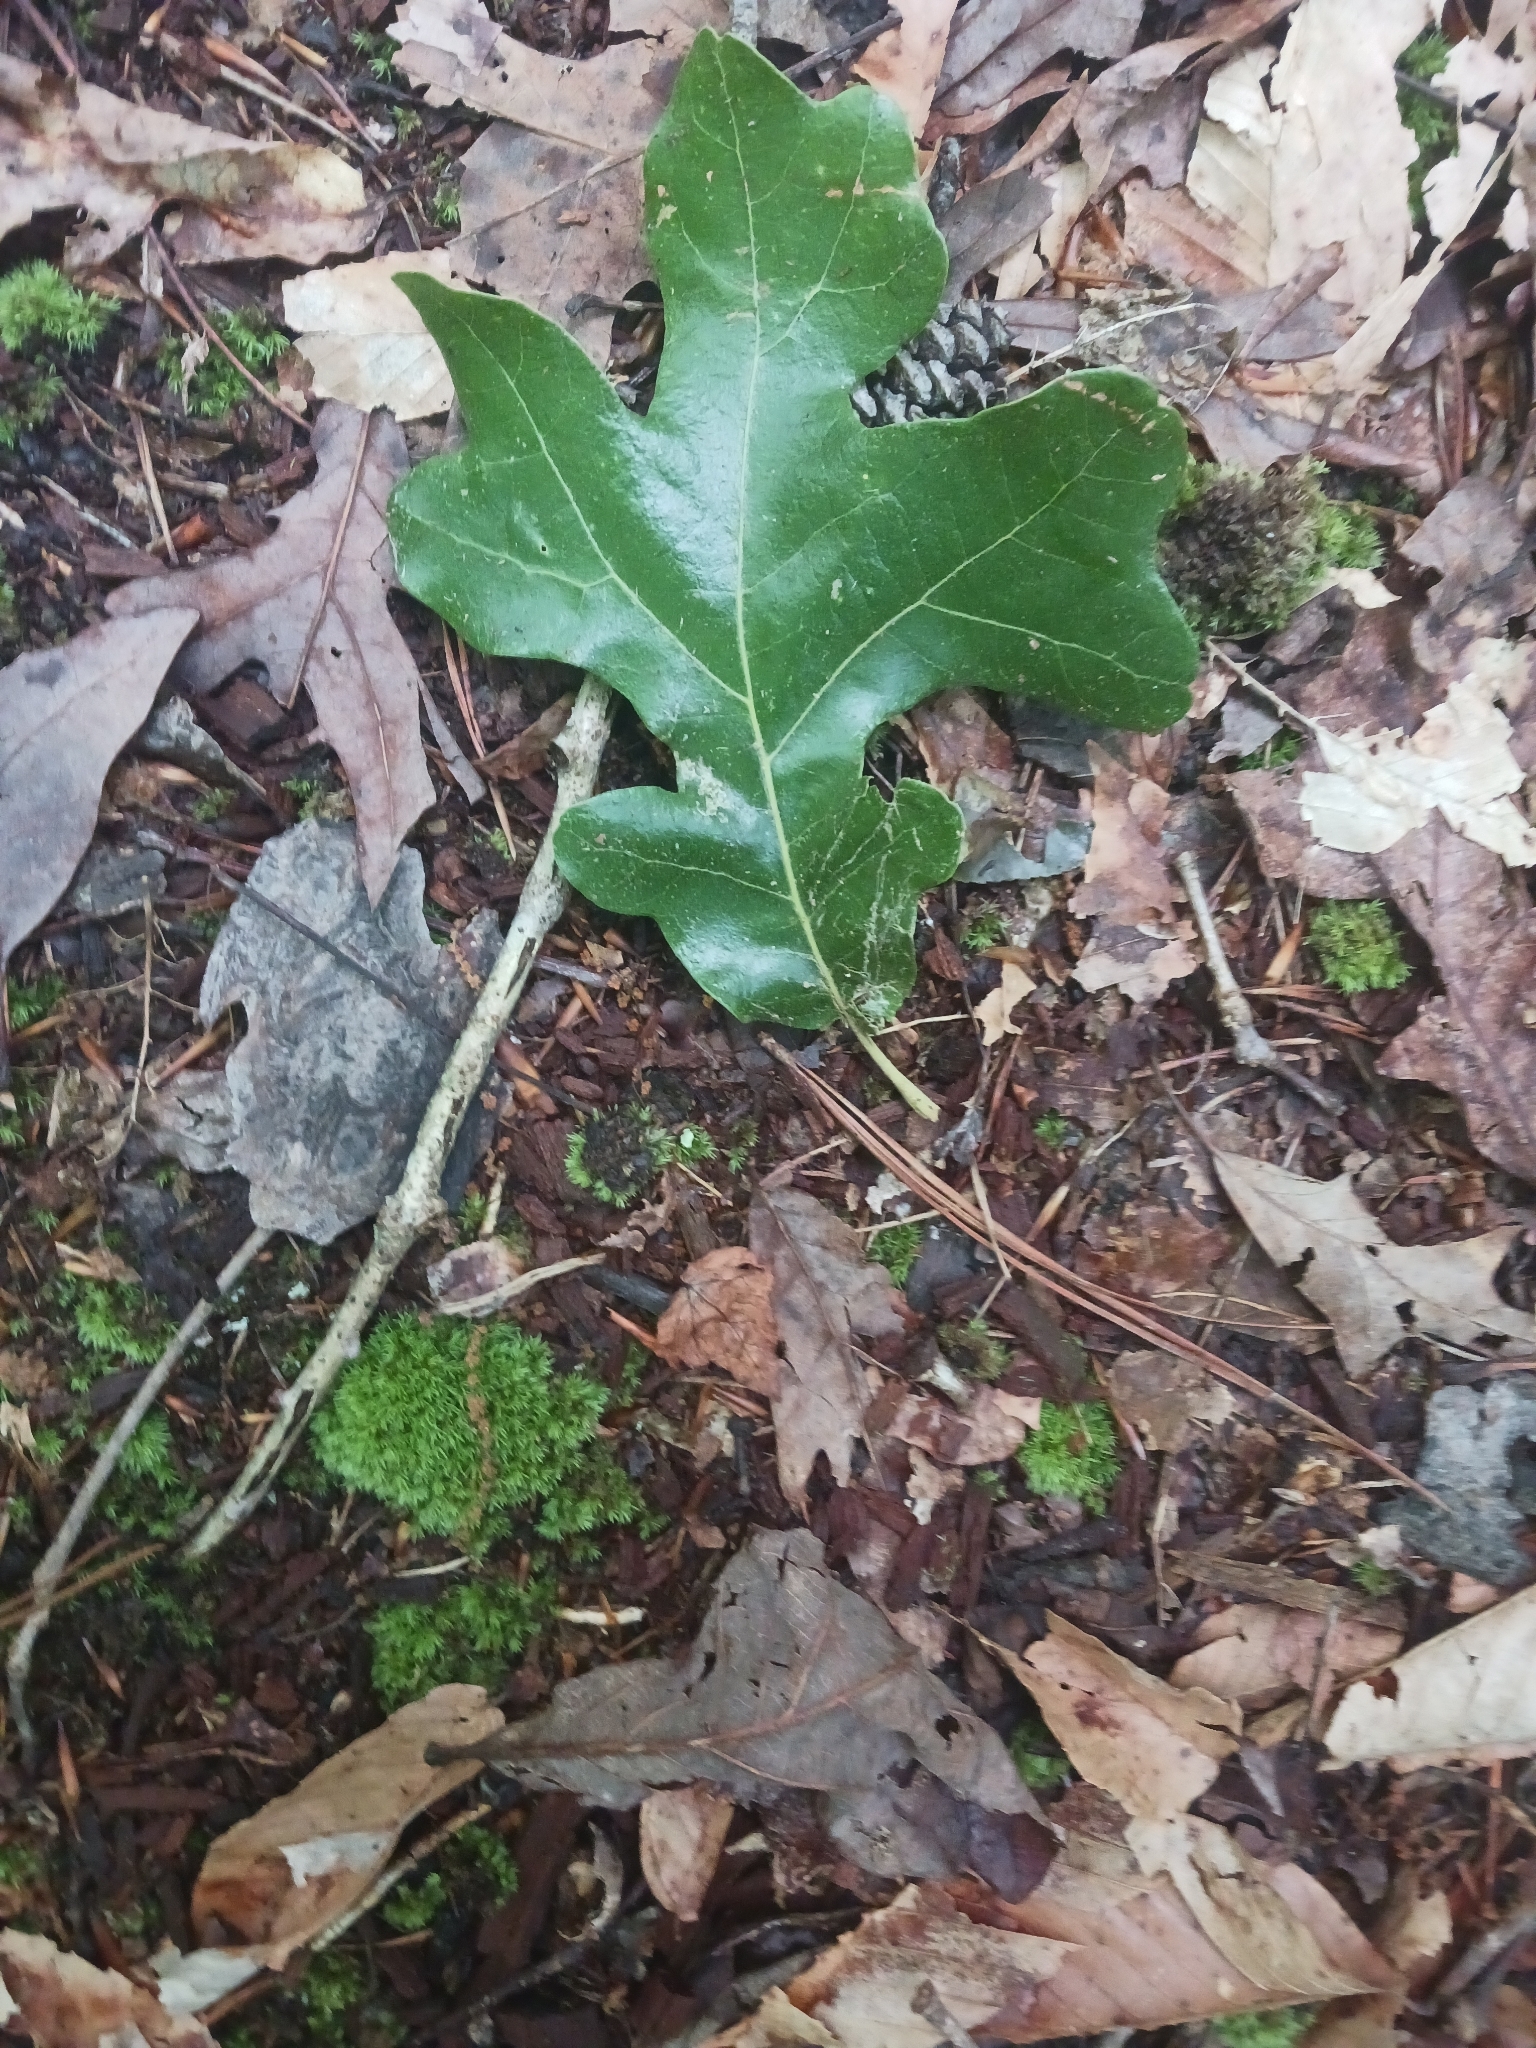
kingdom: Plantae
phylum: Tracheophyta
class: Magnoliopsida
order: Fagales
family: Fagaceae
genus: Quercus
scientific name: Quercus stellata
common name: Post oak
